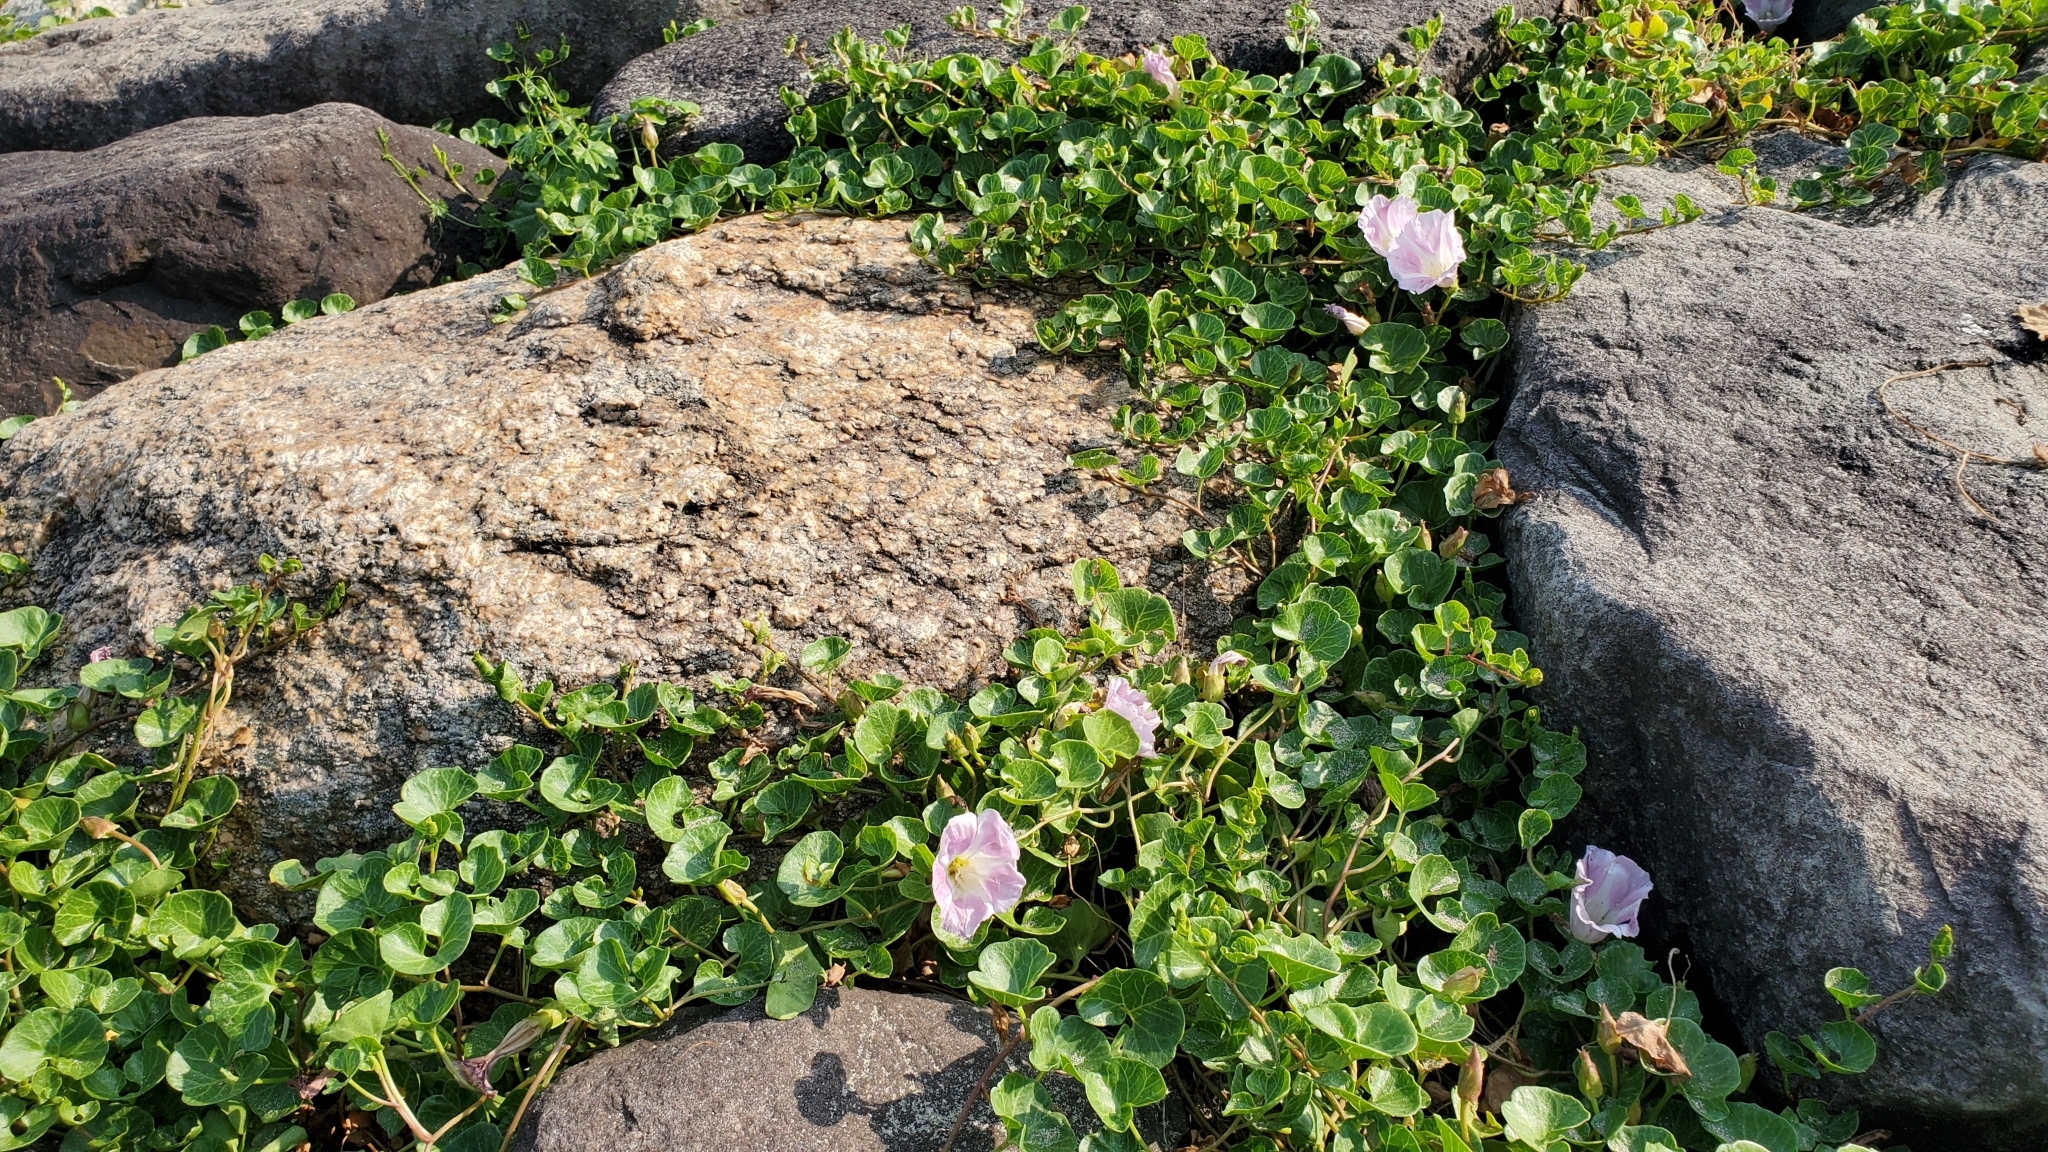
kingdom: Plantae
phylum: Tracheophyta
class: Magnoliopsida
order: Solanales
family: Convolvulaceae
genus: Calystegia
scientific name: Calystegia soldanella
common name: Sea bindweed
